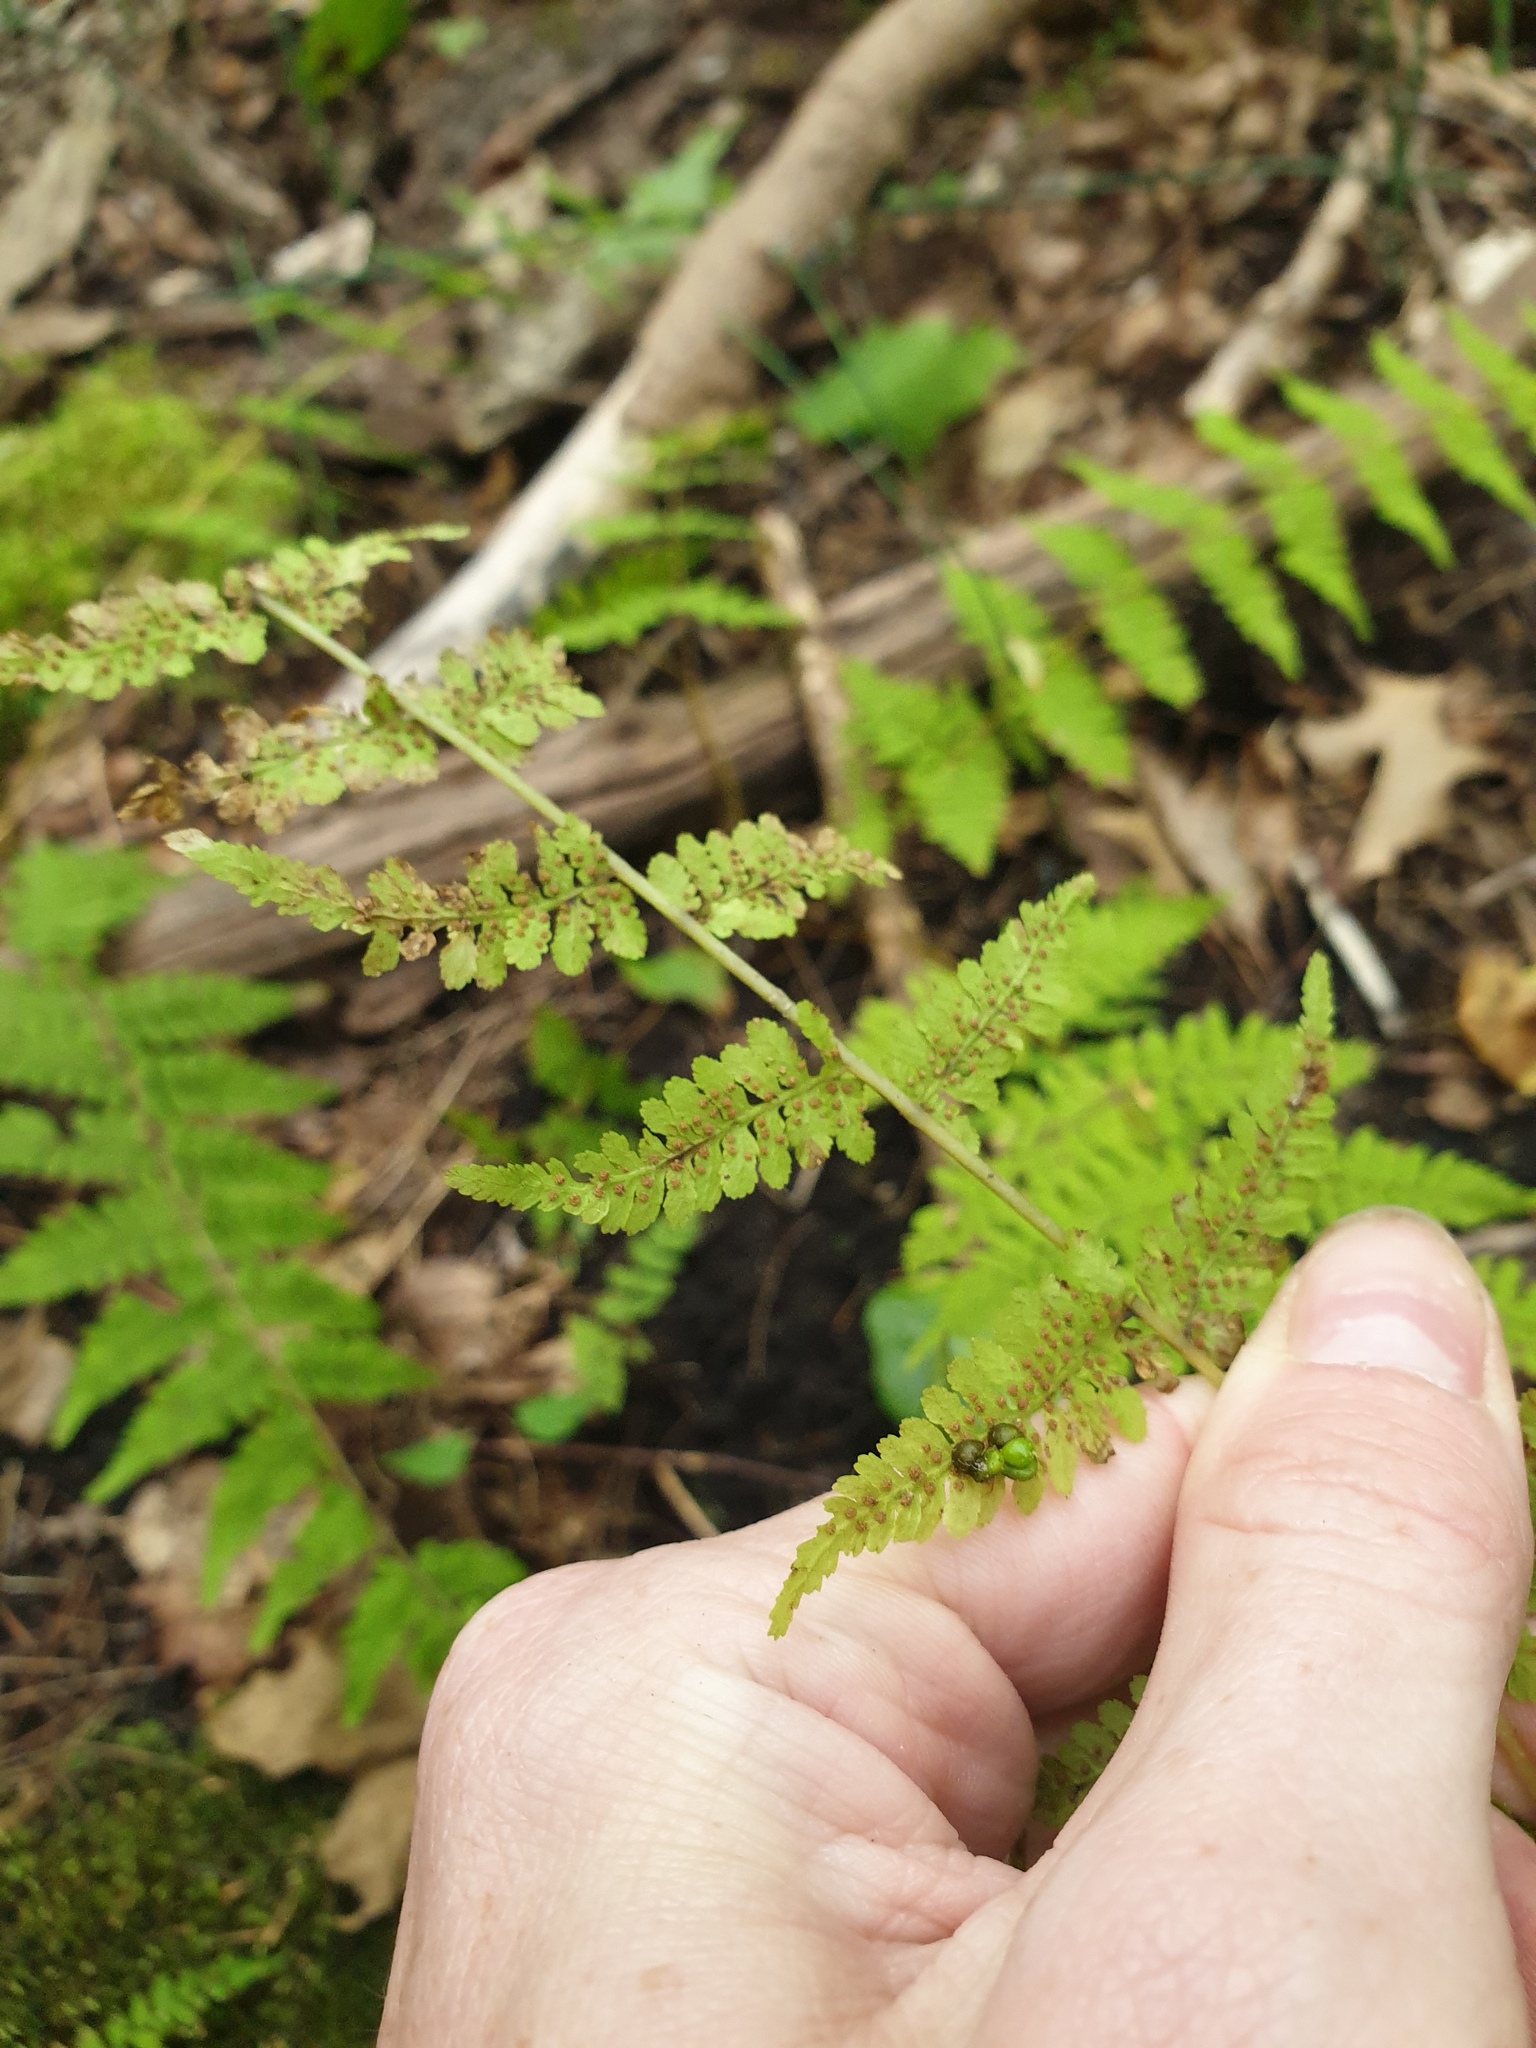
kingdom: Plantae
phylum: Tracheophyta
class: Polypodiopsida
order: Polypodiales
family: Cystopteridaceae
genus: Cystopteris
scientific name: Cystopteris bulbifera
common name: Bulblet bladder fern
